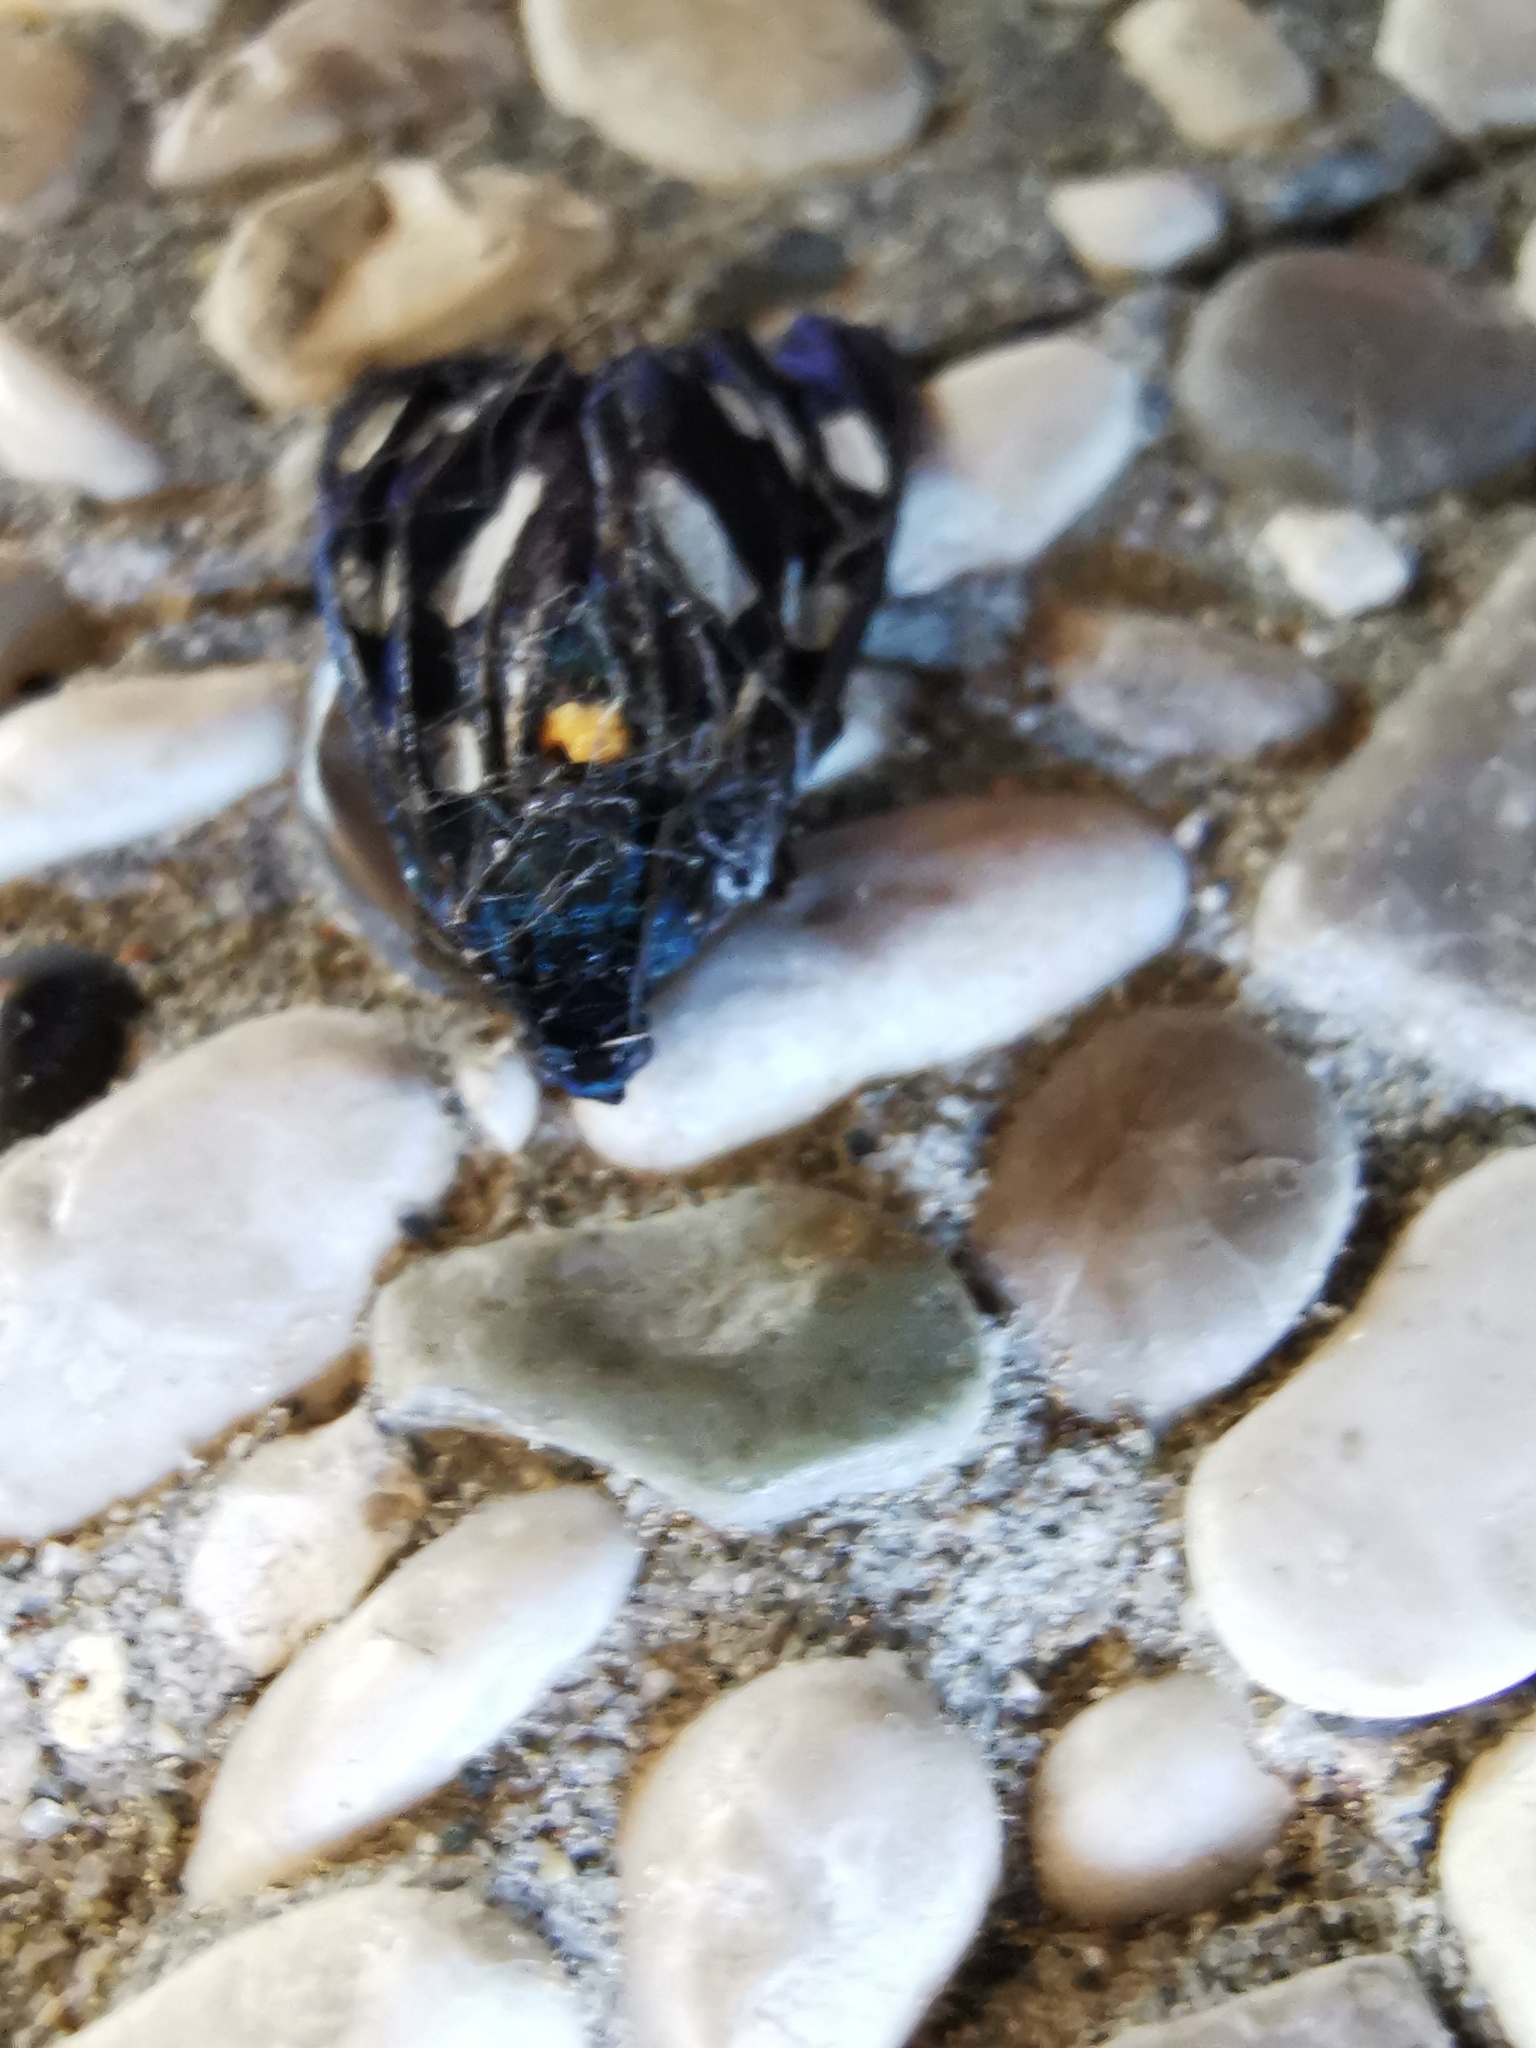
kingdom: Animalia
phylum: Arthropoda
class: Insecta
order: Lepidoptera
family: Erebidae
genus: Amata
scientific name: Amata phegea
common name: Nine-spotted
